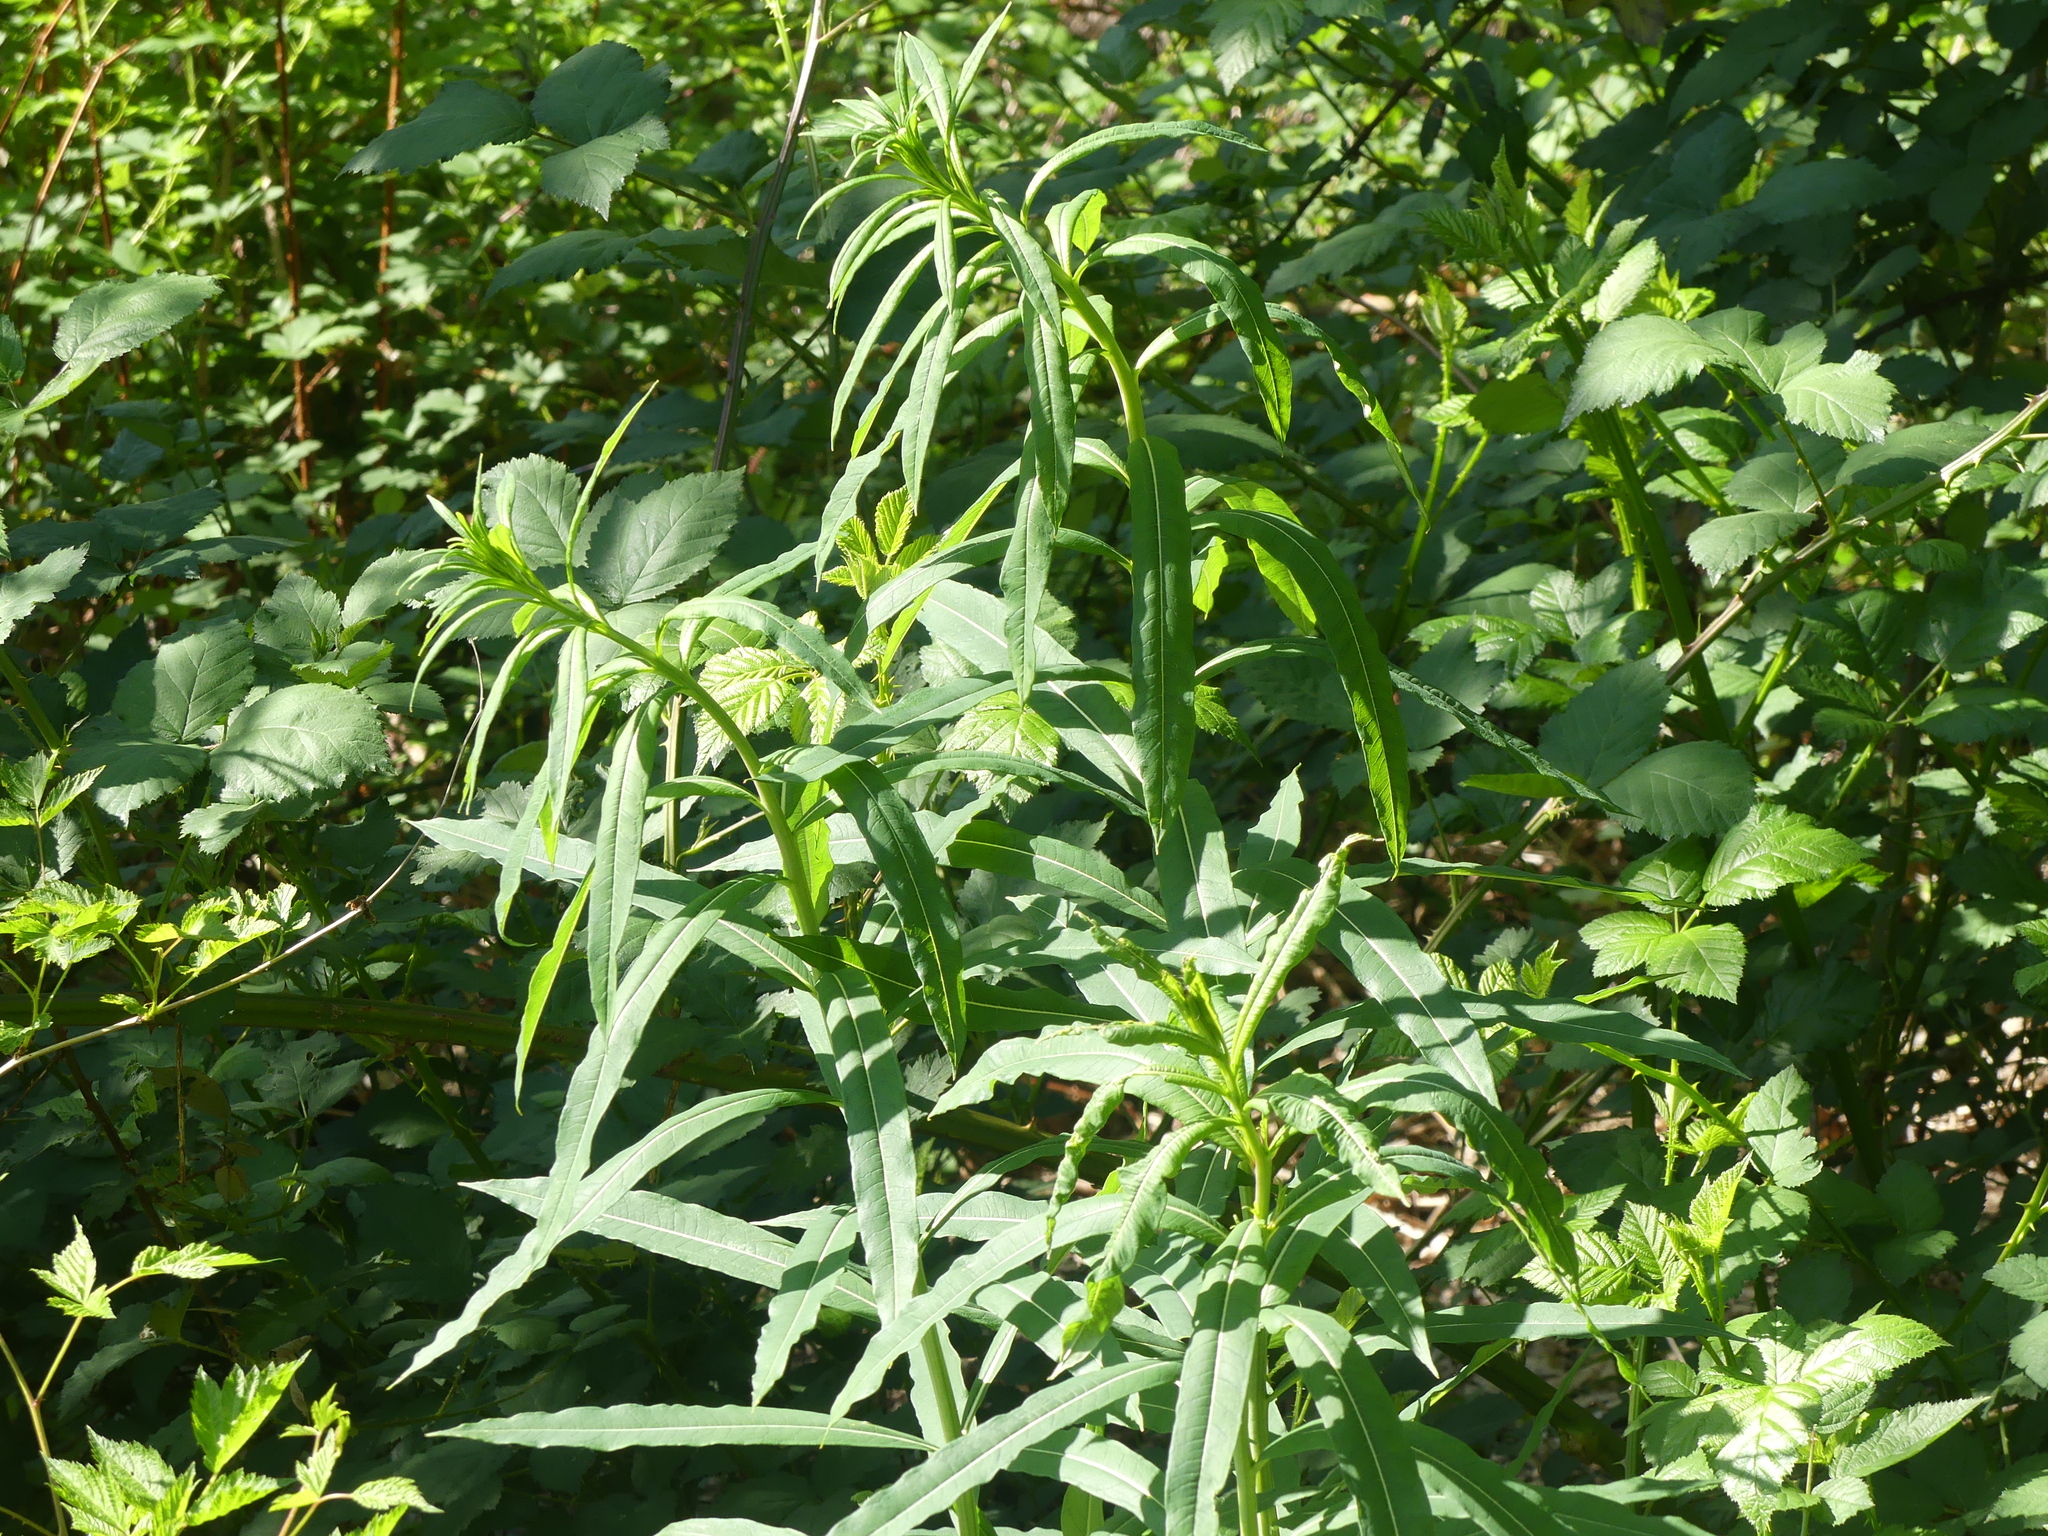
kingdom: Plantae
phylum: Tracheophyta
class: Magnoliopsida
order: Myrtales
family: Onagraceae
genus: Chamaenerion
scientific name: Chamaenerion angustifolium
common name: Fireweed
